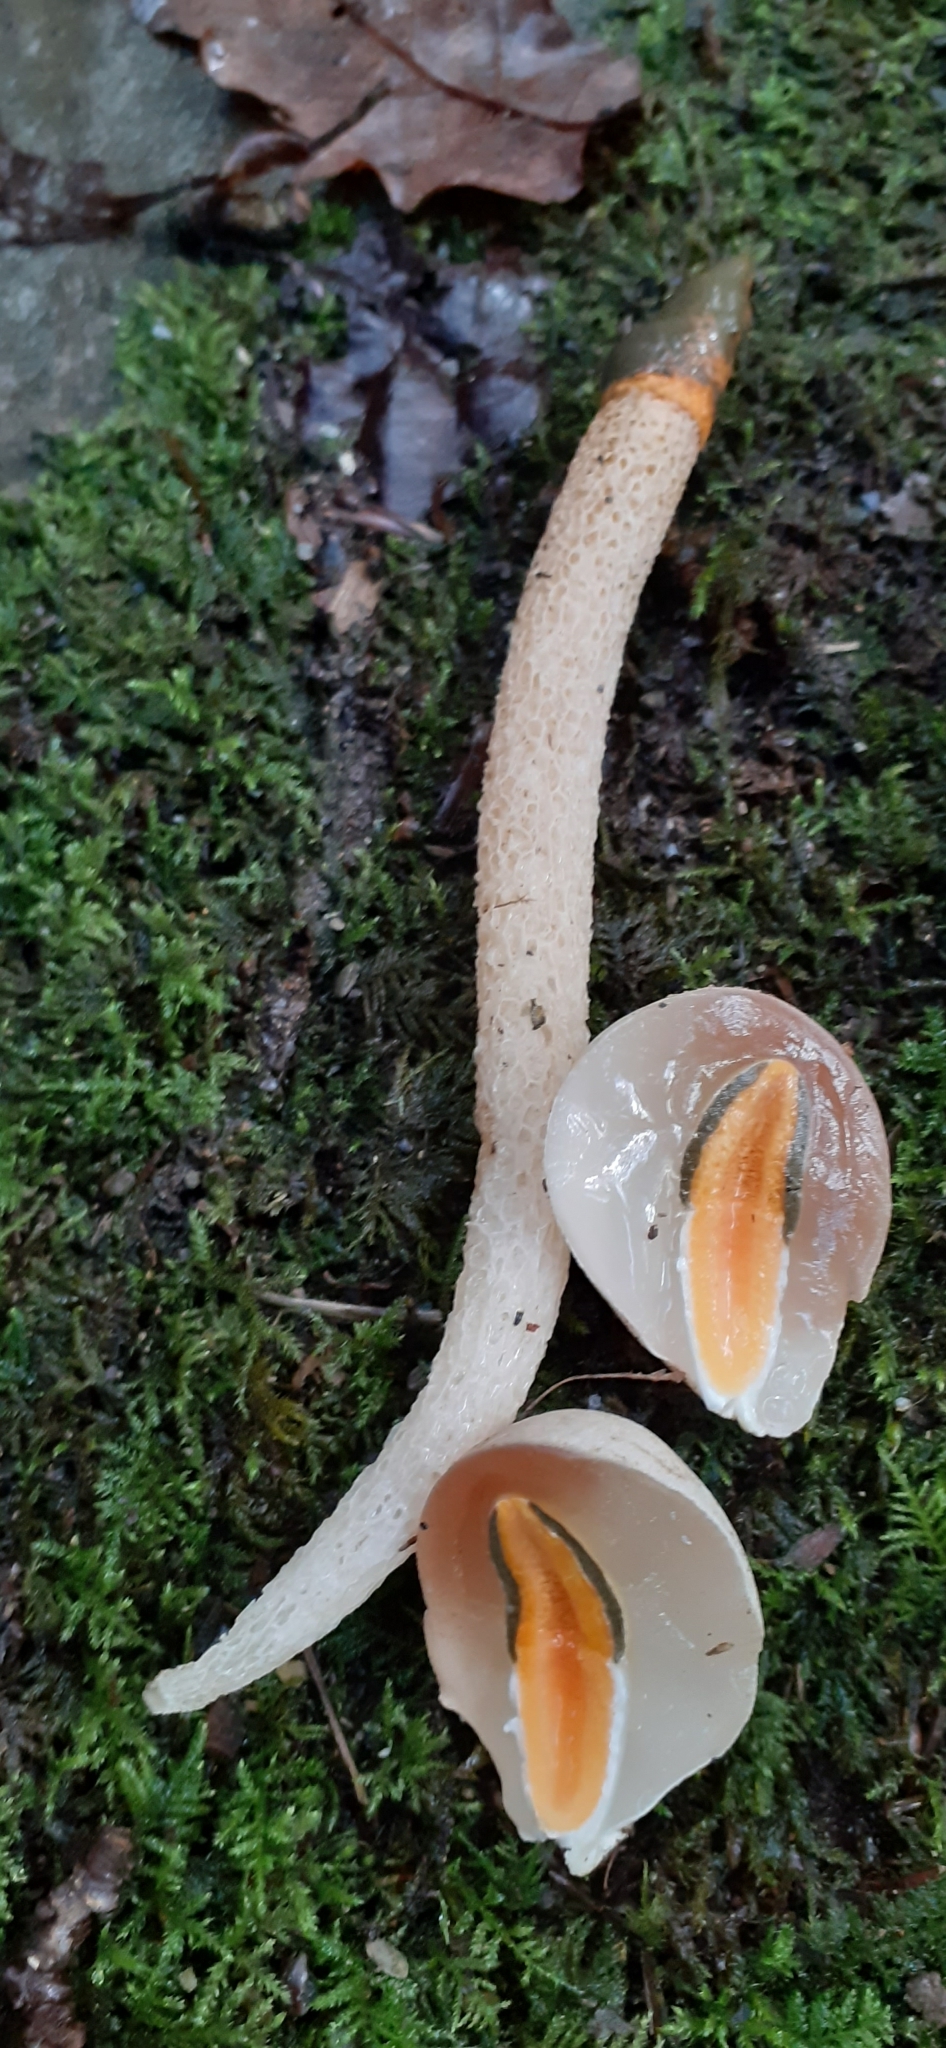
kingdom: Fungi
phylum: Basidiomycota
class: Agaricomycetes
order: Phallales
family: Phallaceae
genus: Mutinus
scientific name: Mutinus caninus
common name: Dog stinkhorn
